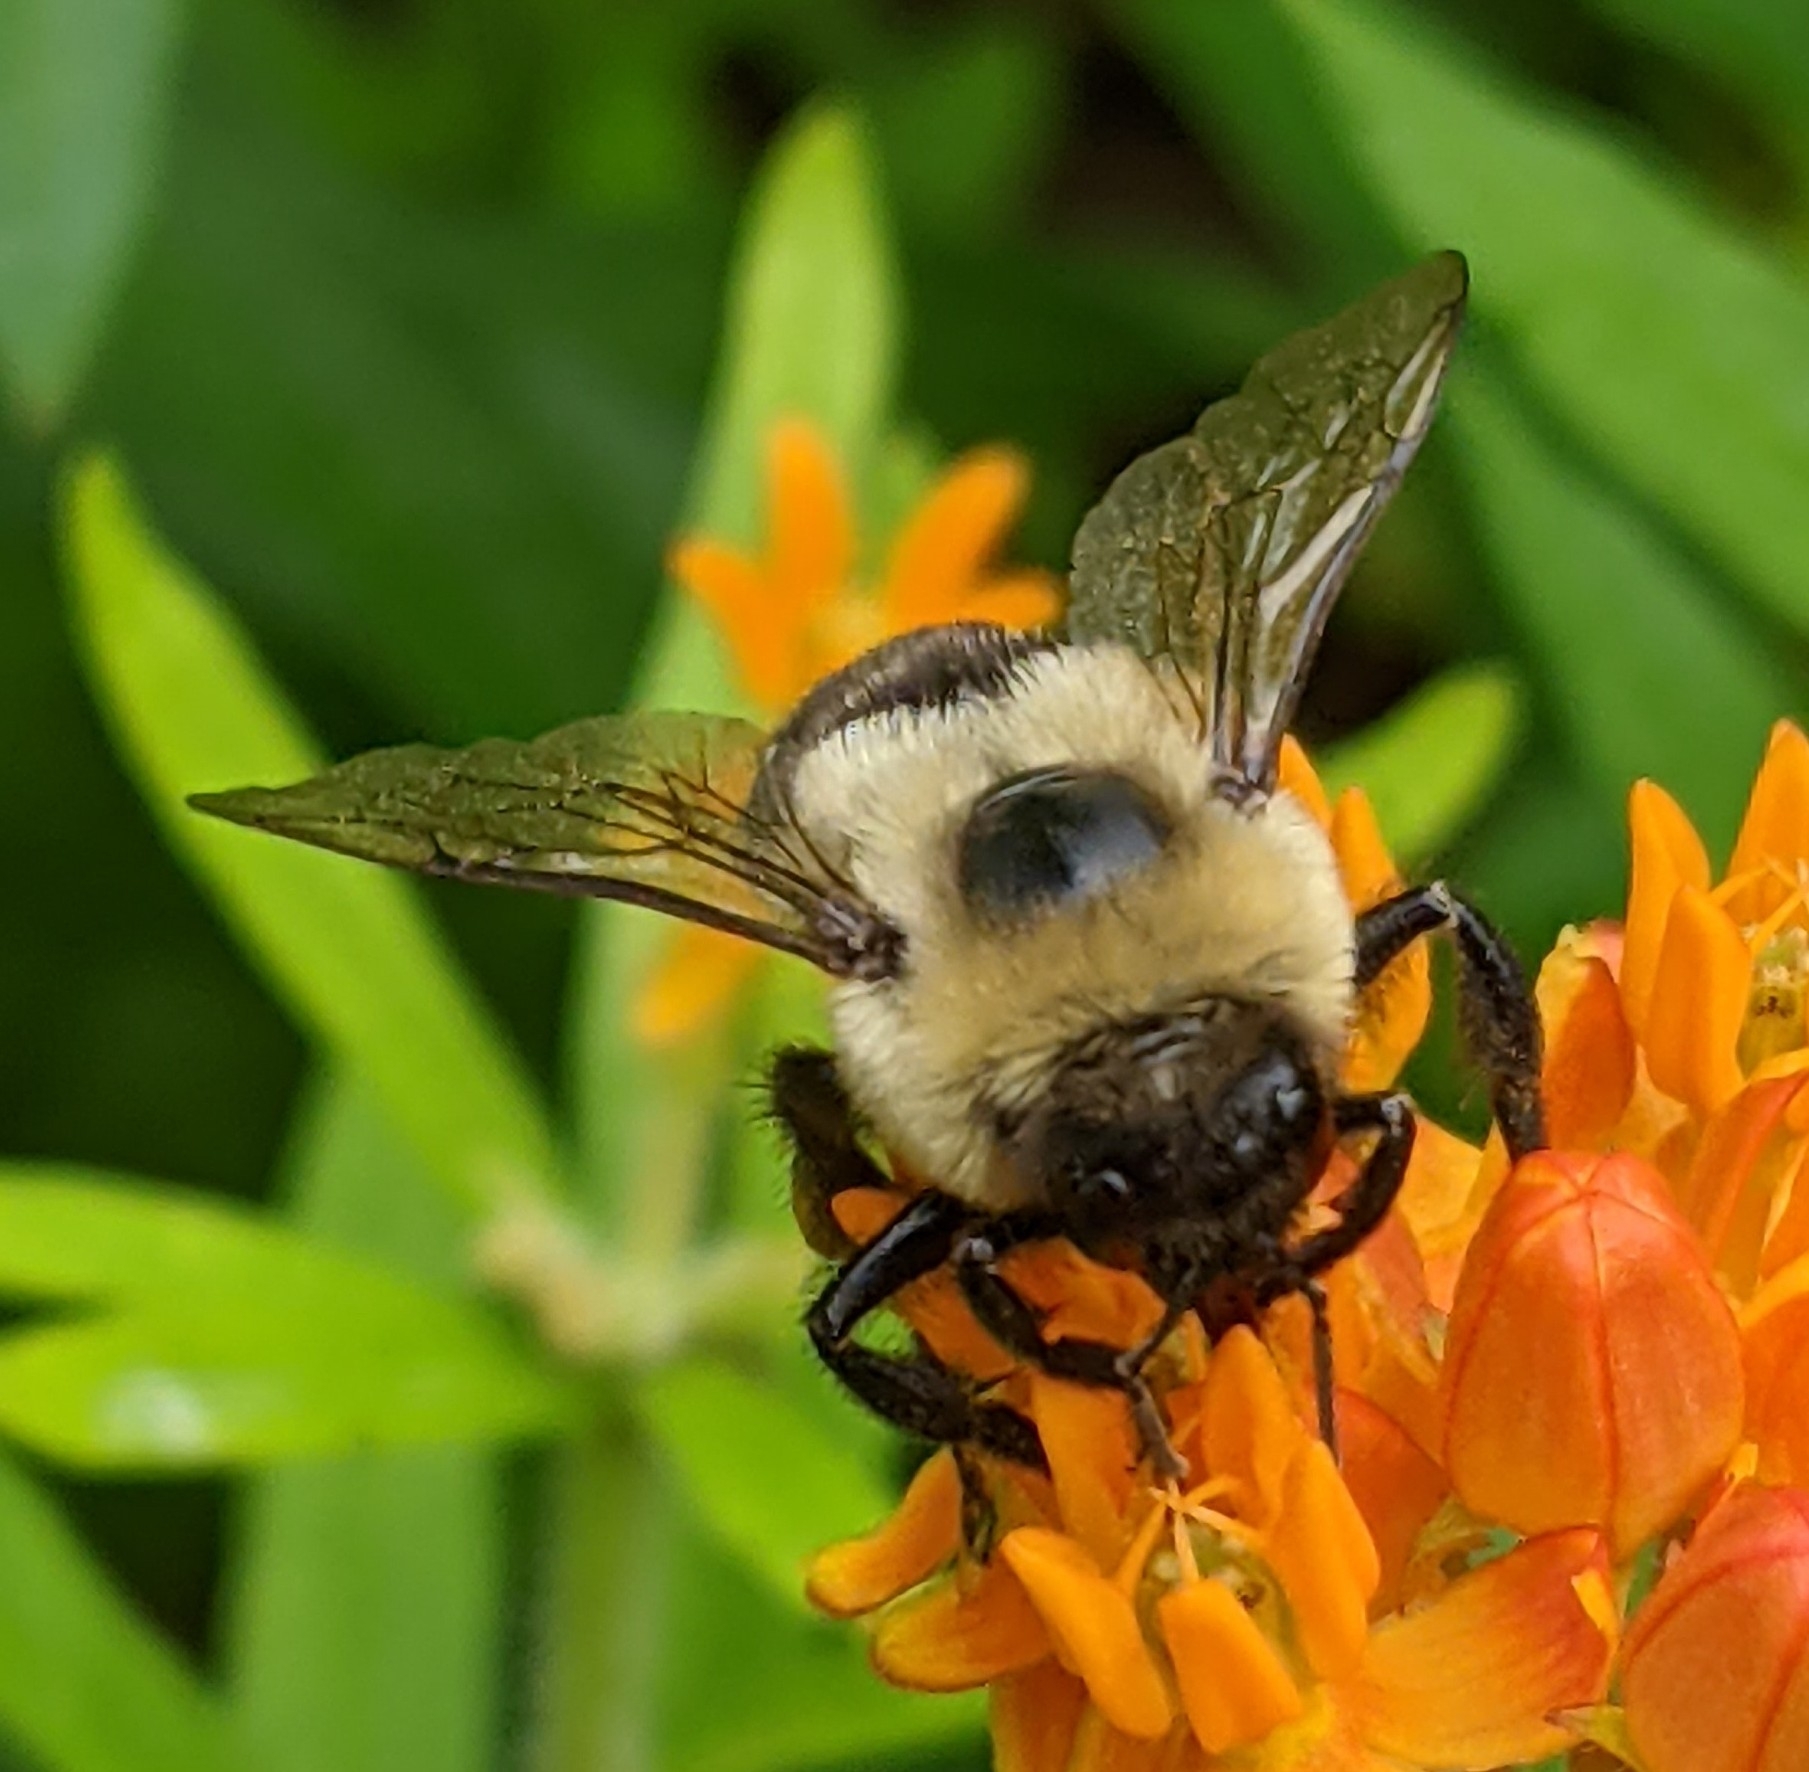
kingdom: Animalia
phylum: Arthropoda
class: Insecta
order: Hymenoptera
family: Apidae
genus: Bombus
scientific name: Bombus impatiens
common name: Common eastern bumble bee
